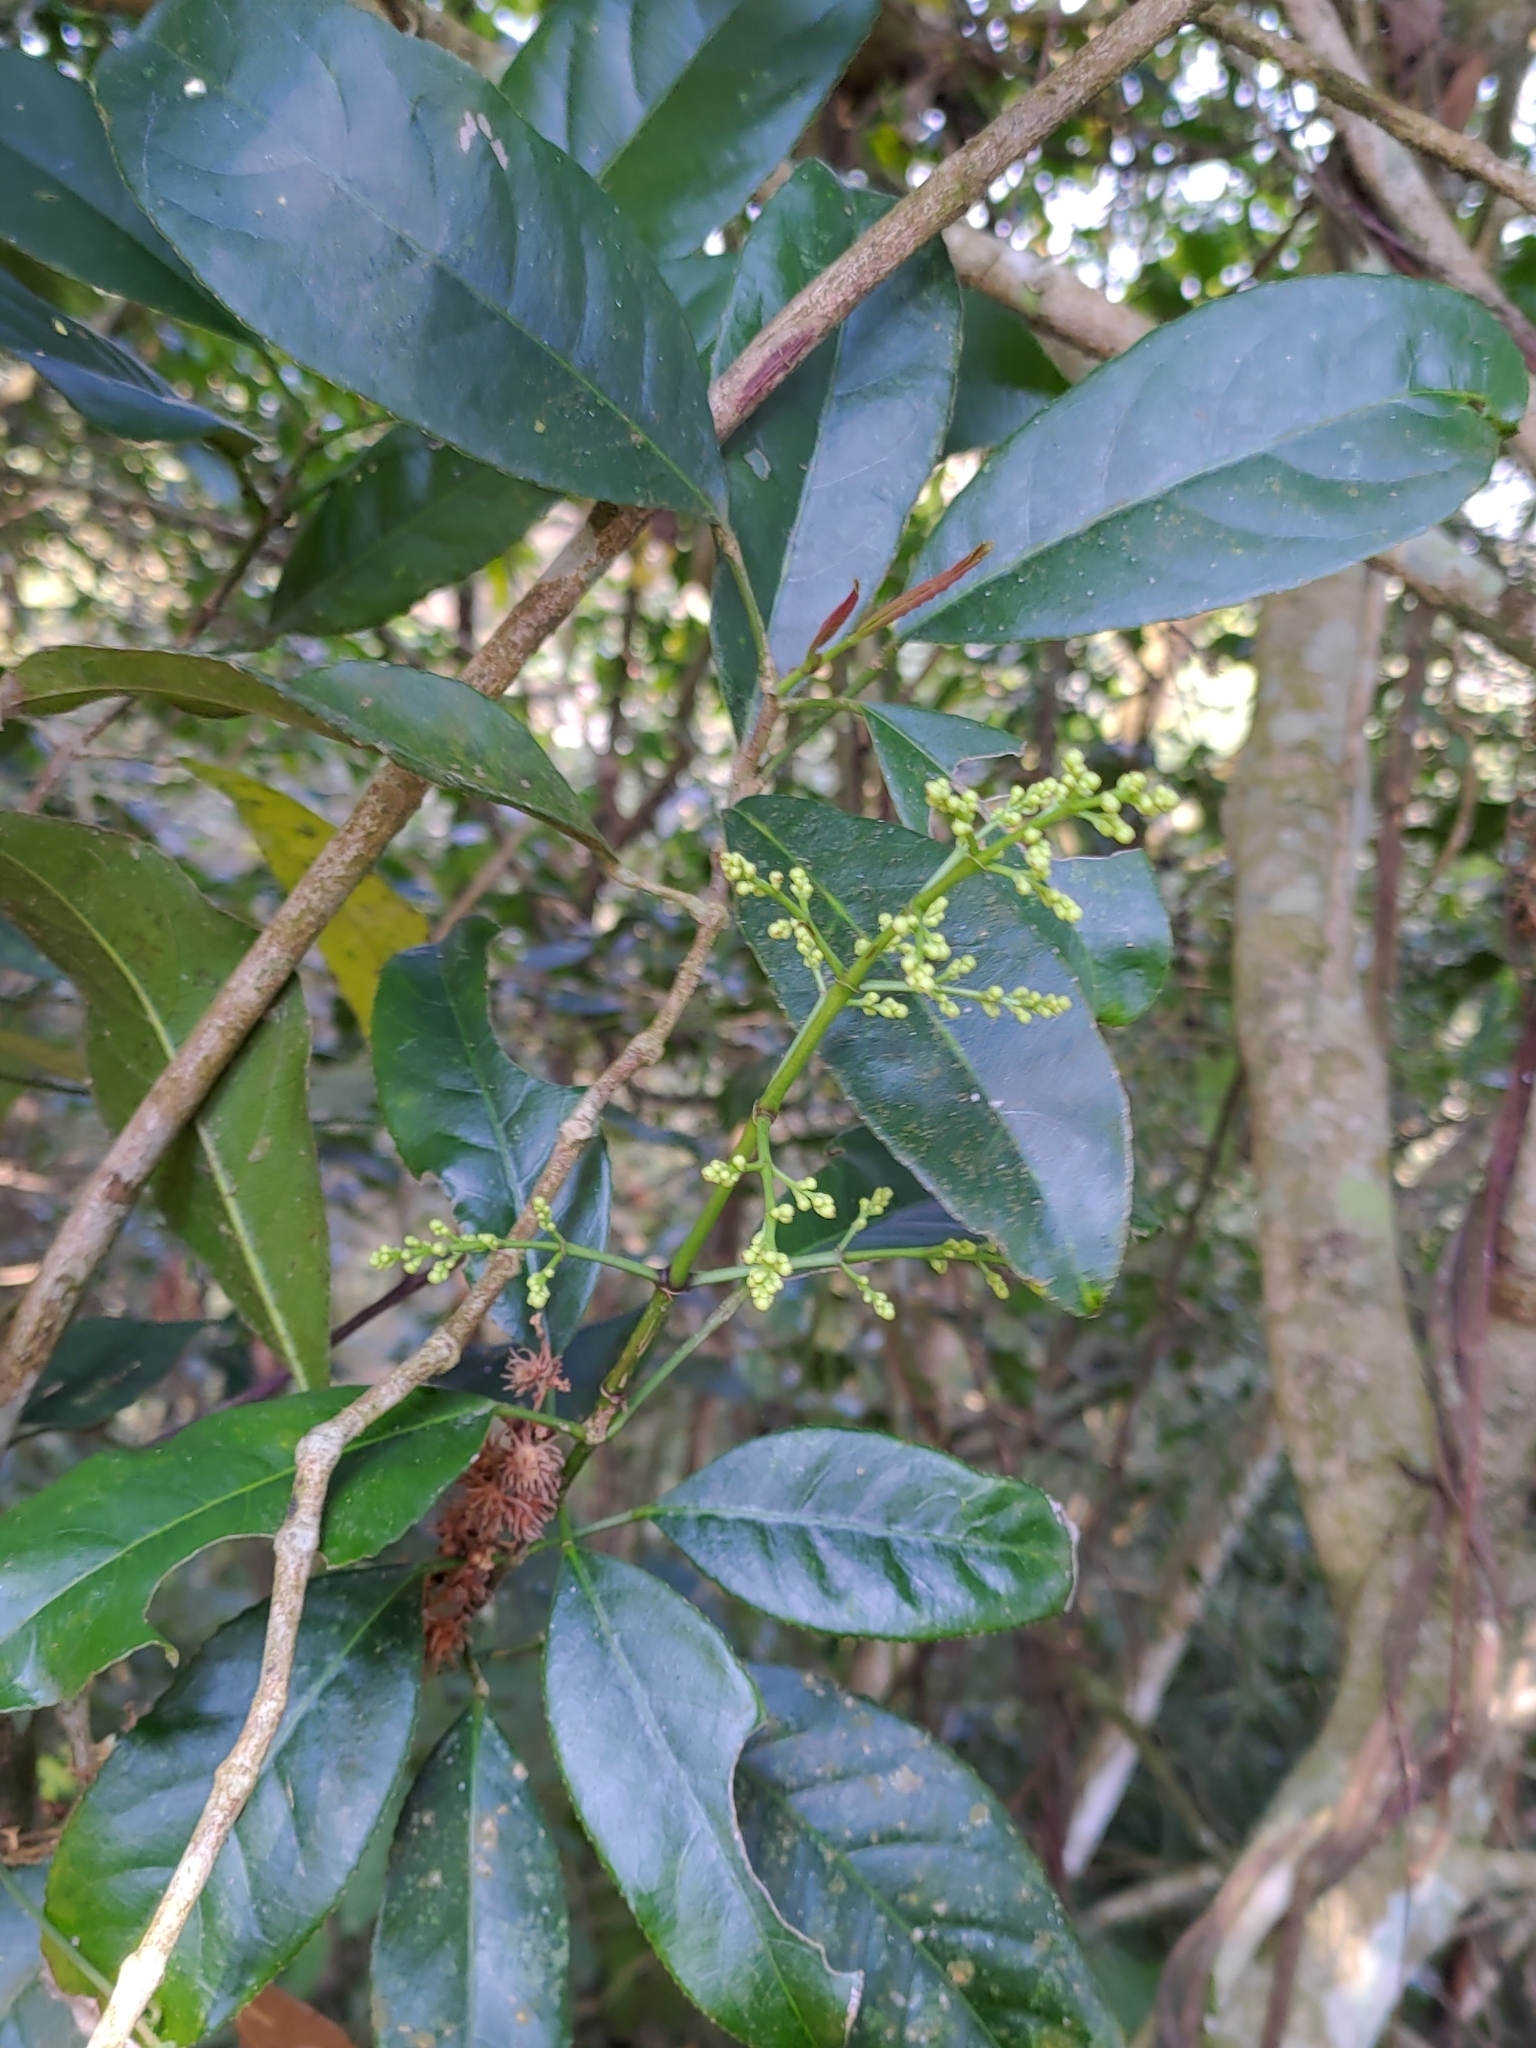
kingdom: Plantae
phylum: Tracheophyta
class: Magnoliopsida
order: Crossosomatales
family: Staphyleaceae
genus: Turpinia
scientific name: Turpinia formosana
